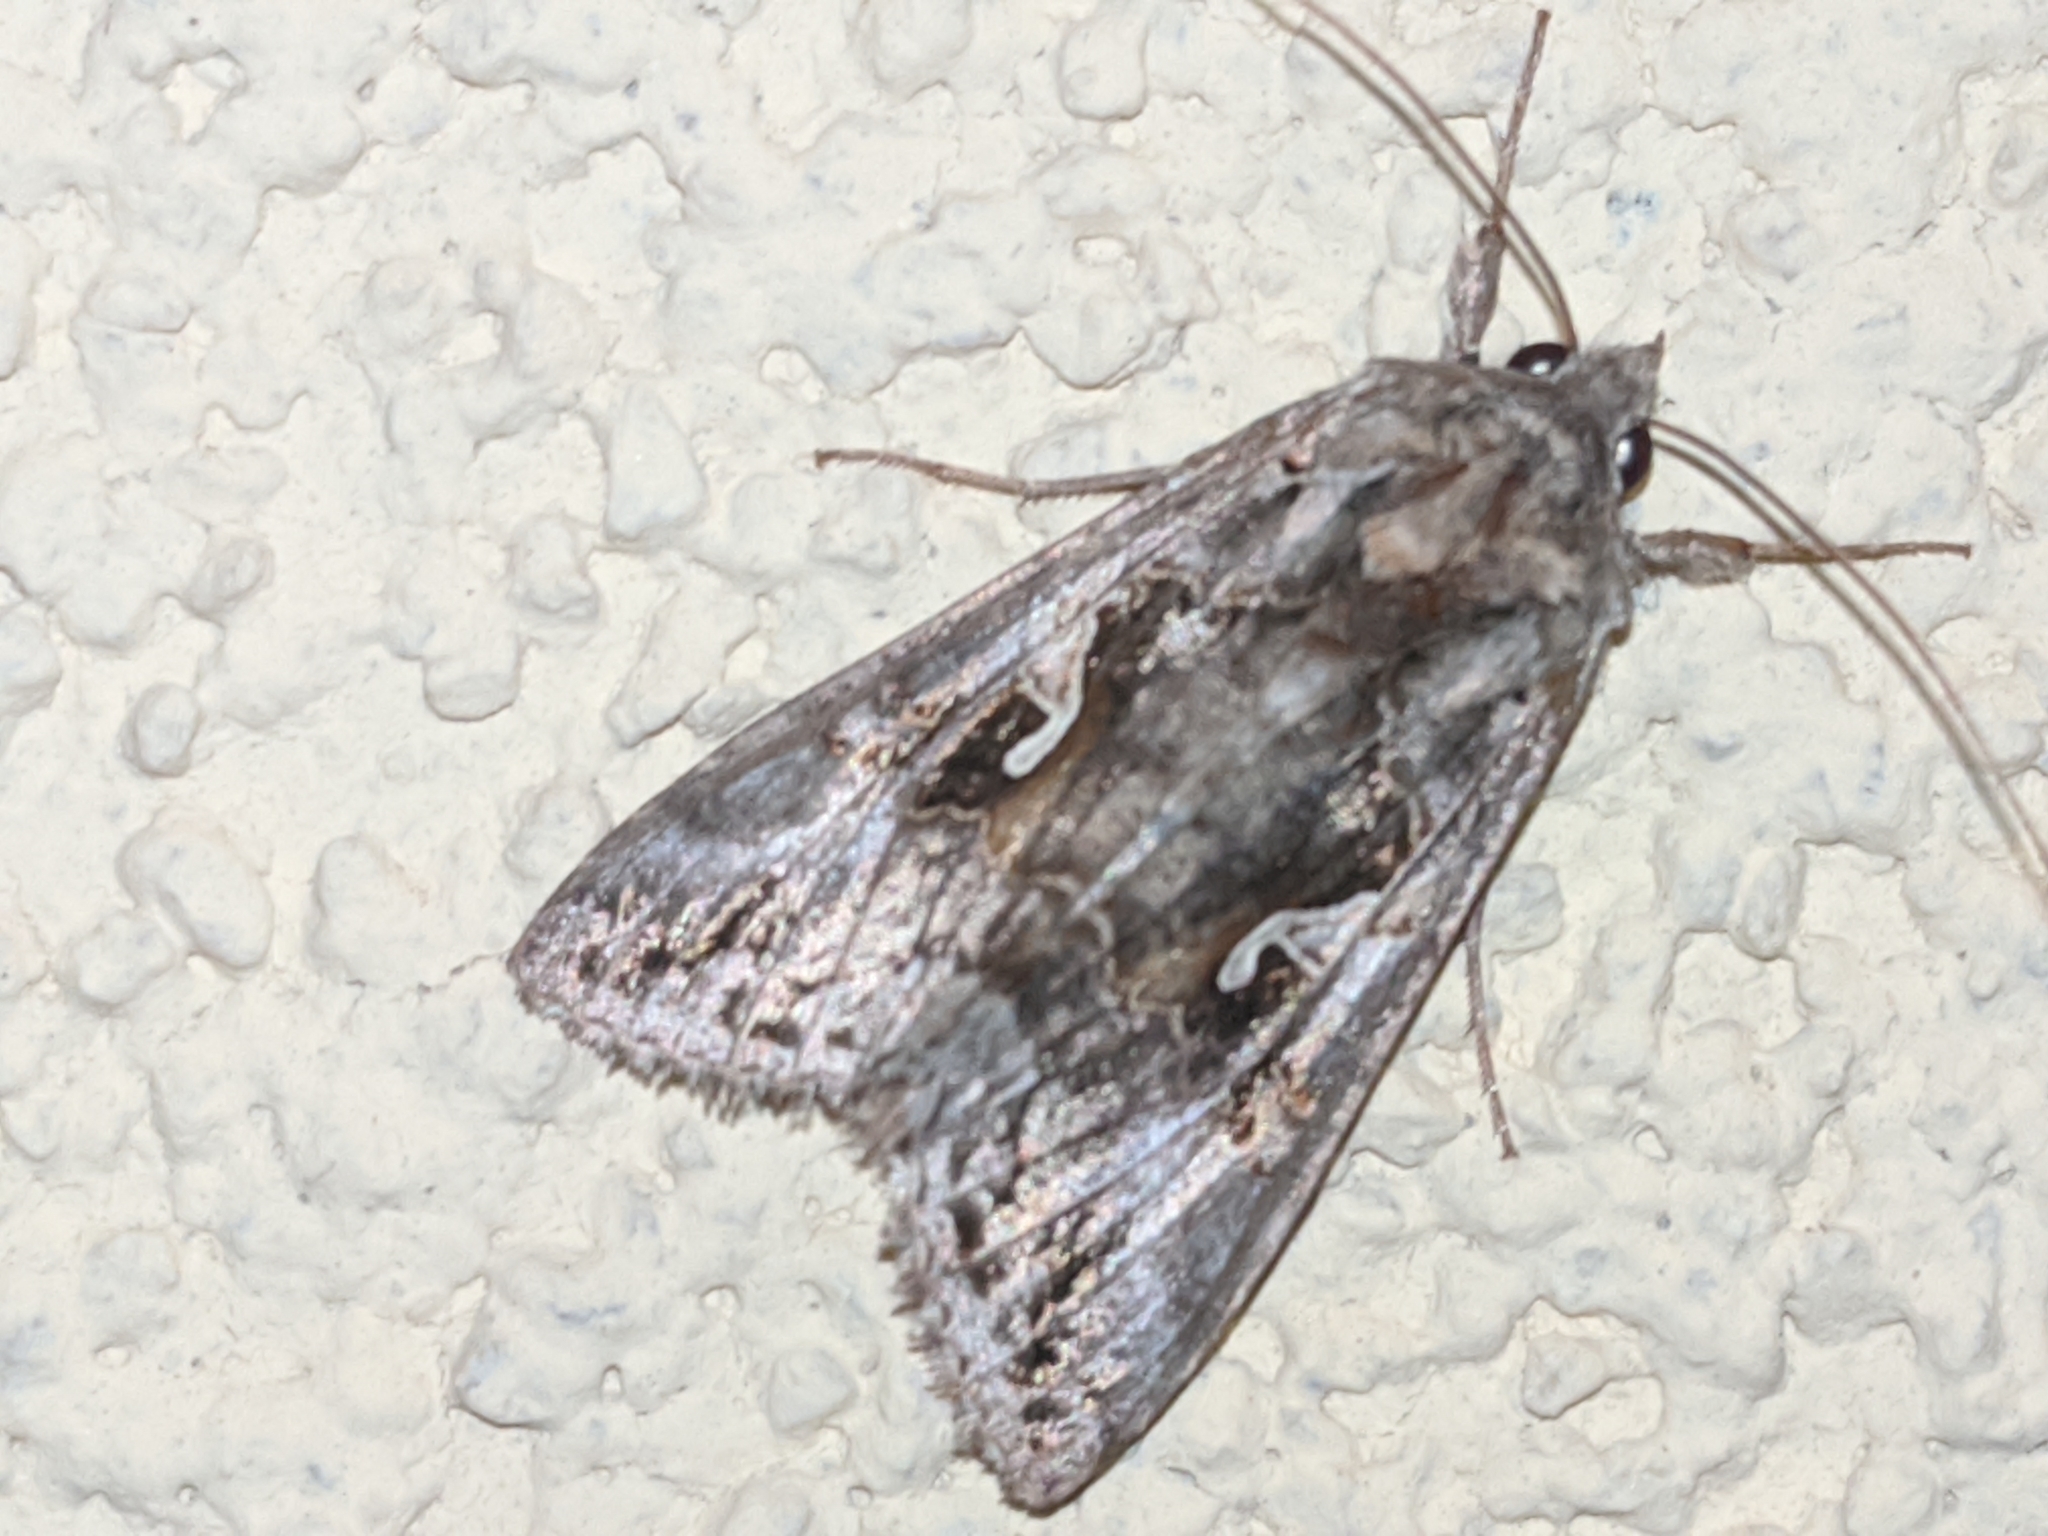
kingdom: Animalia
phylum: Arthropoda
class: Insecta
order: Lepidoptera
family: Noctuidae
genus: Autographa
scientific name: Autographa gamma
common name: Silver y
